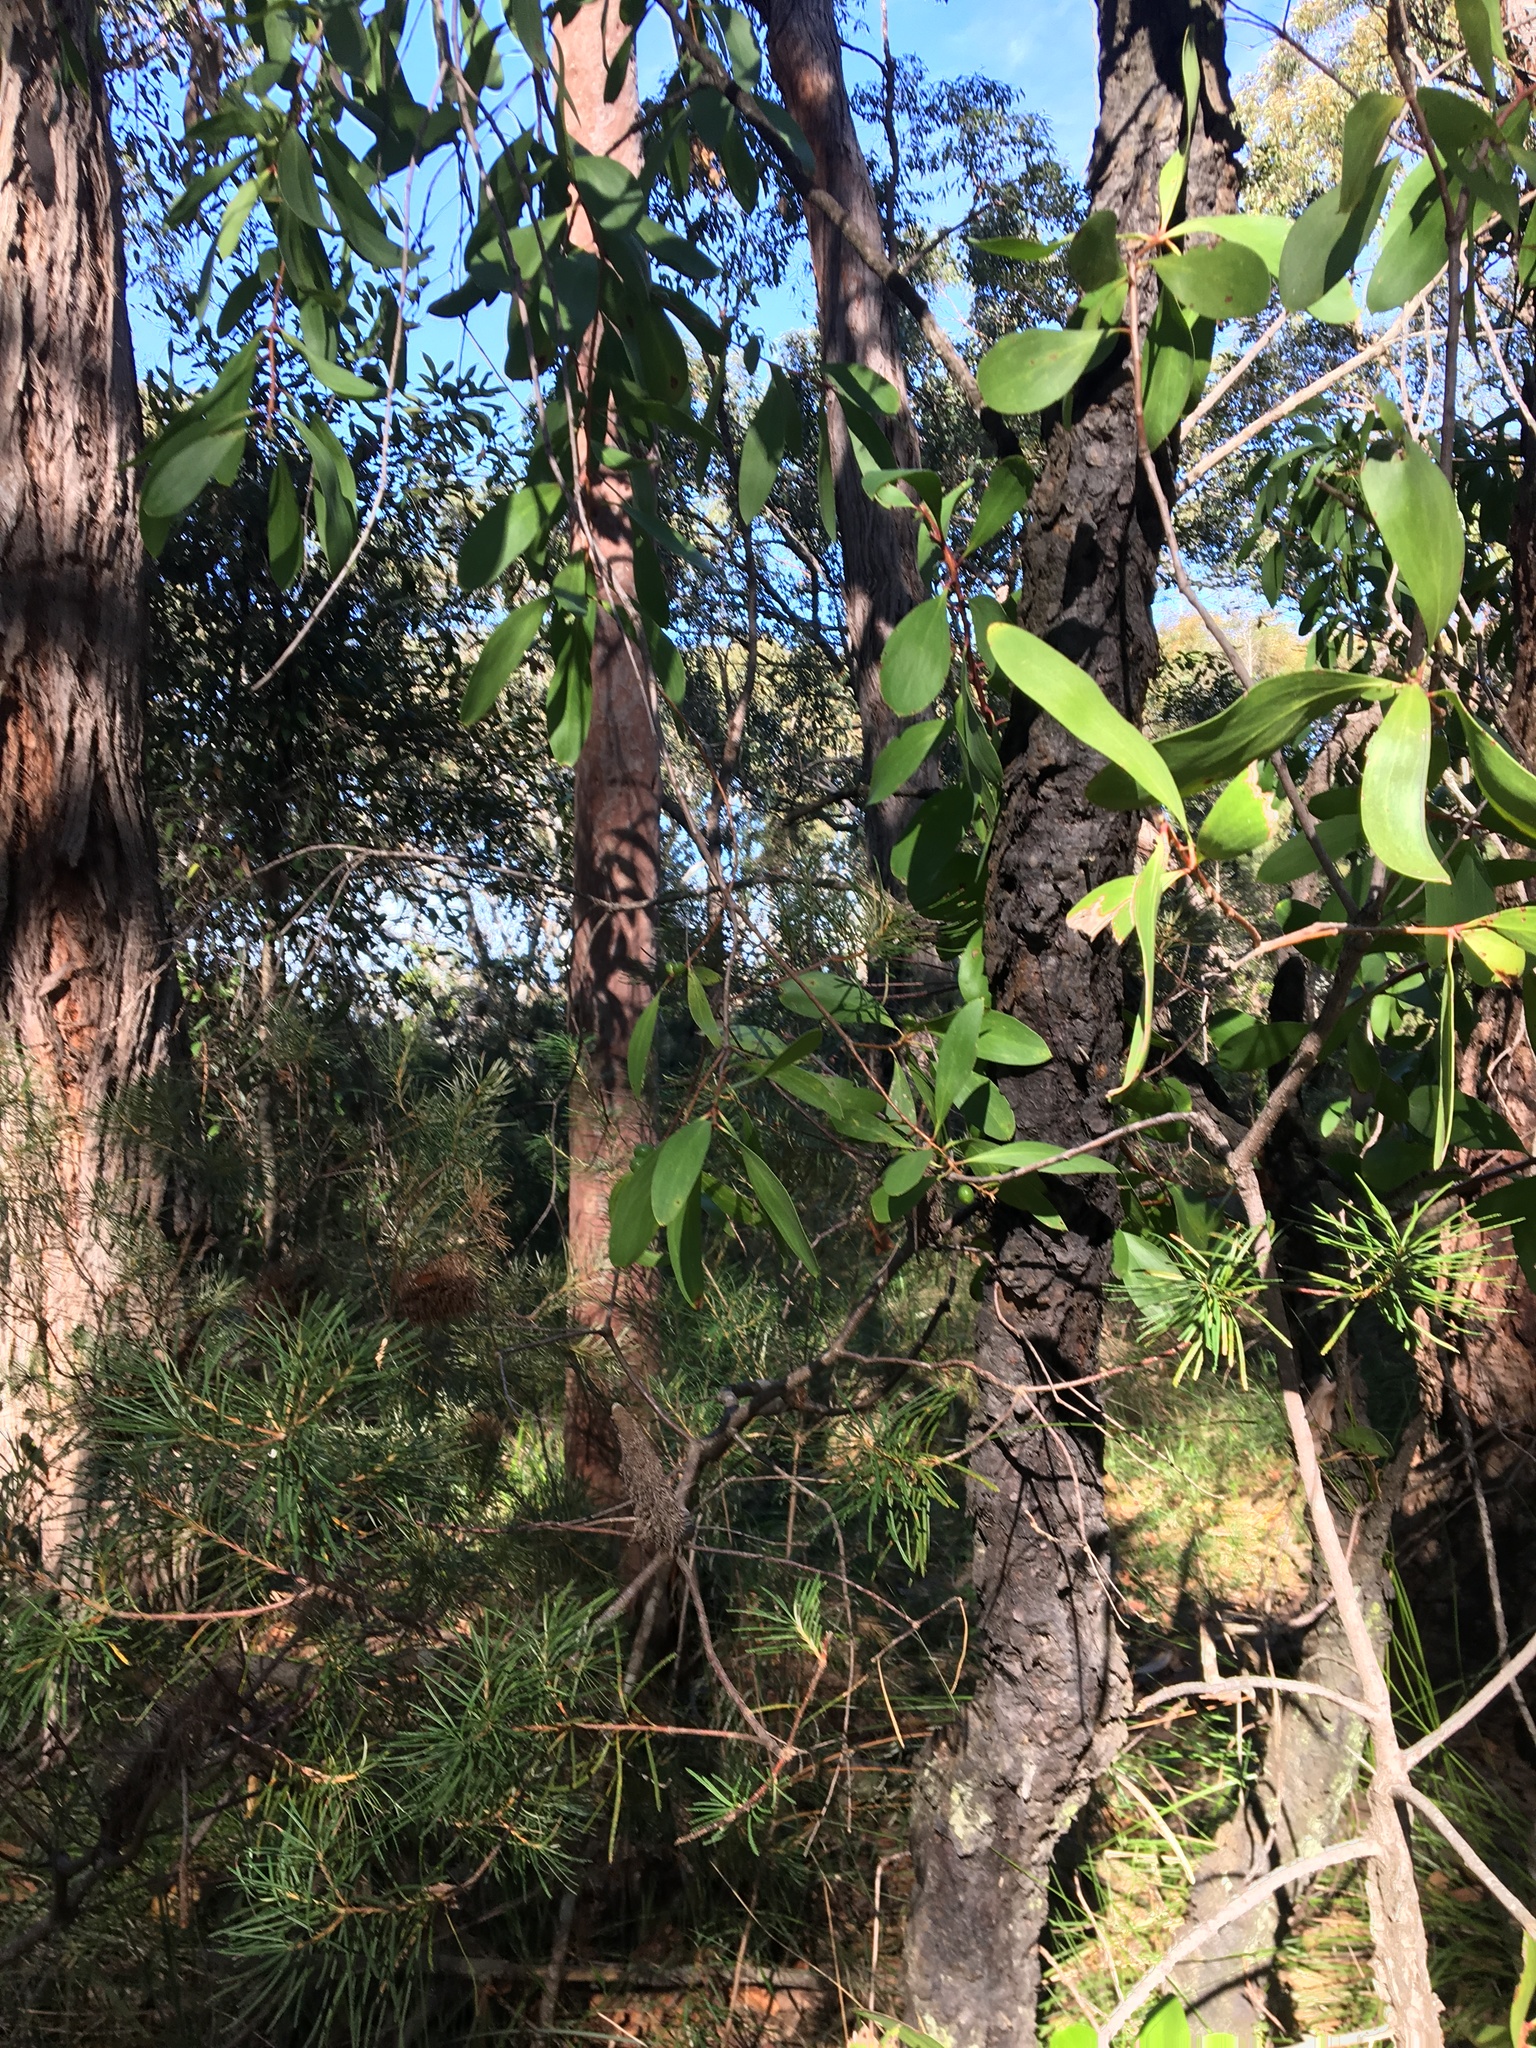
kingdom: Plantae
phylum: Tracheophyta
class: Magnoliopsida
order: Proteales
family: Proteaceae
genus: Persoonia
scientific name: Persoonia levis
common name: Smooth geebung
